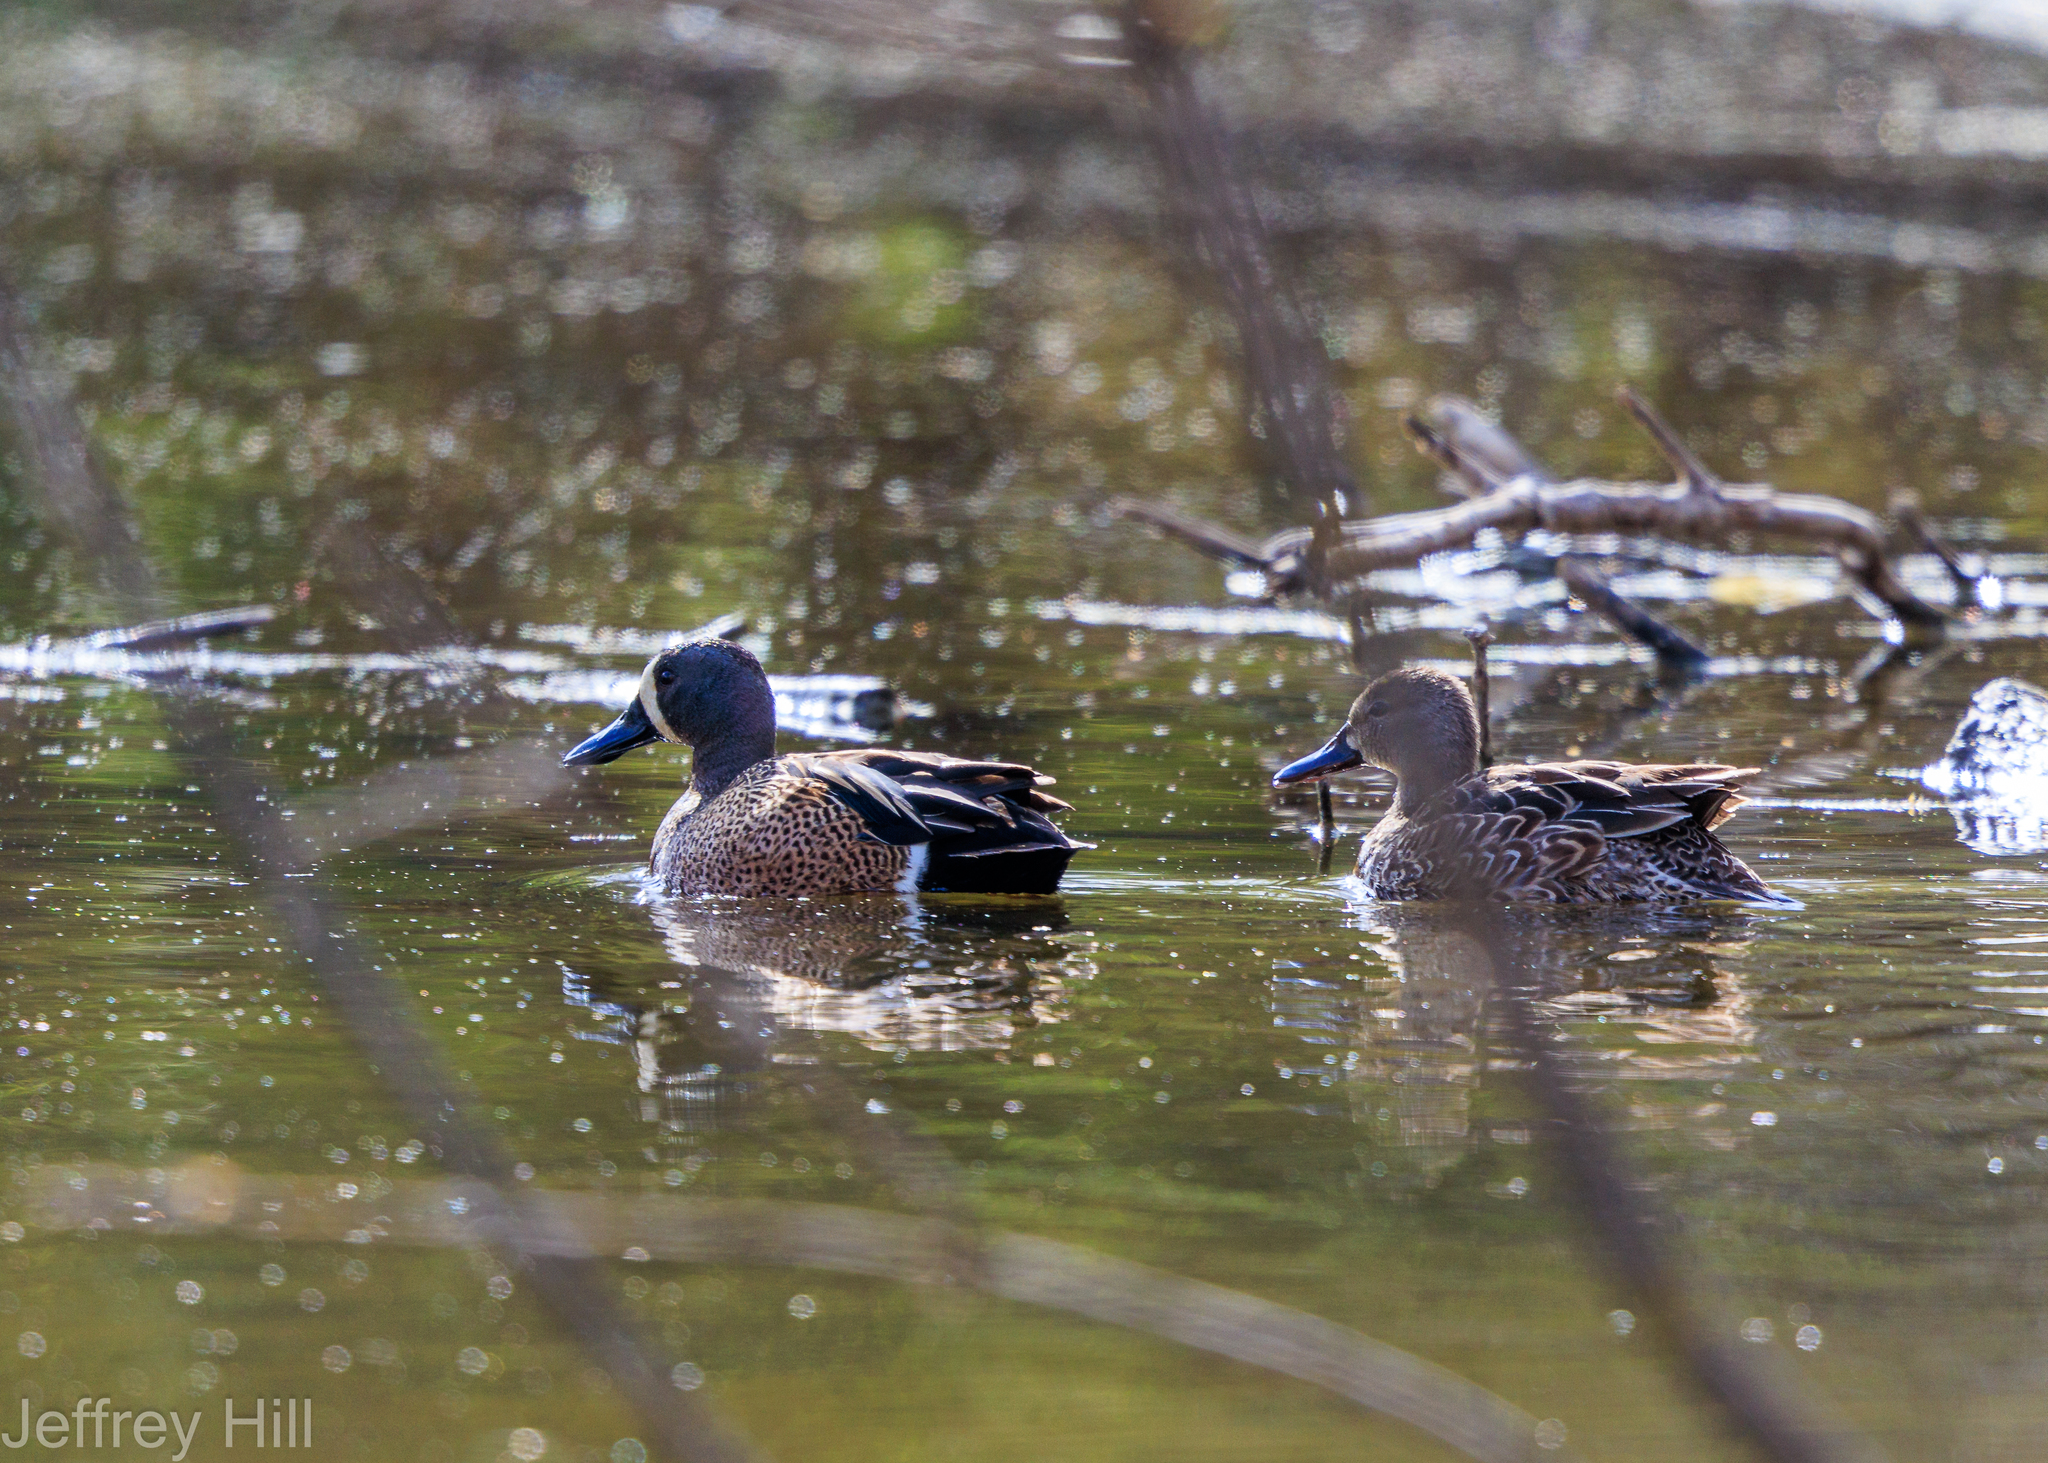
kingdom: Animalia
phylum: Chordata
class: Aves
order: Anseriformes
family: Anatidae
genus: Spatula
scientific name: Spatula discors
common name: Blue-winged teal
